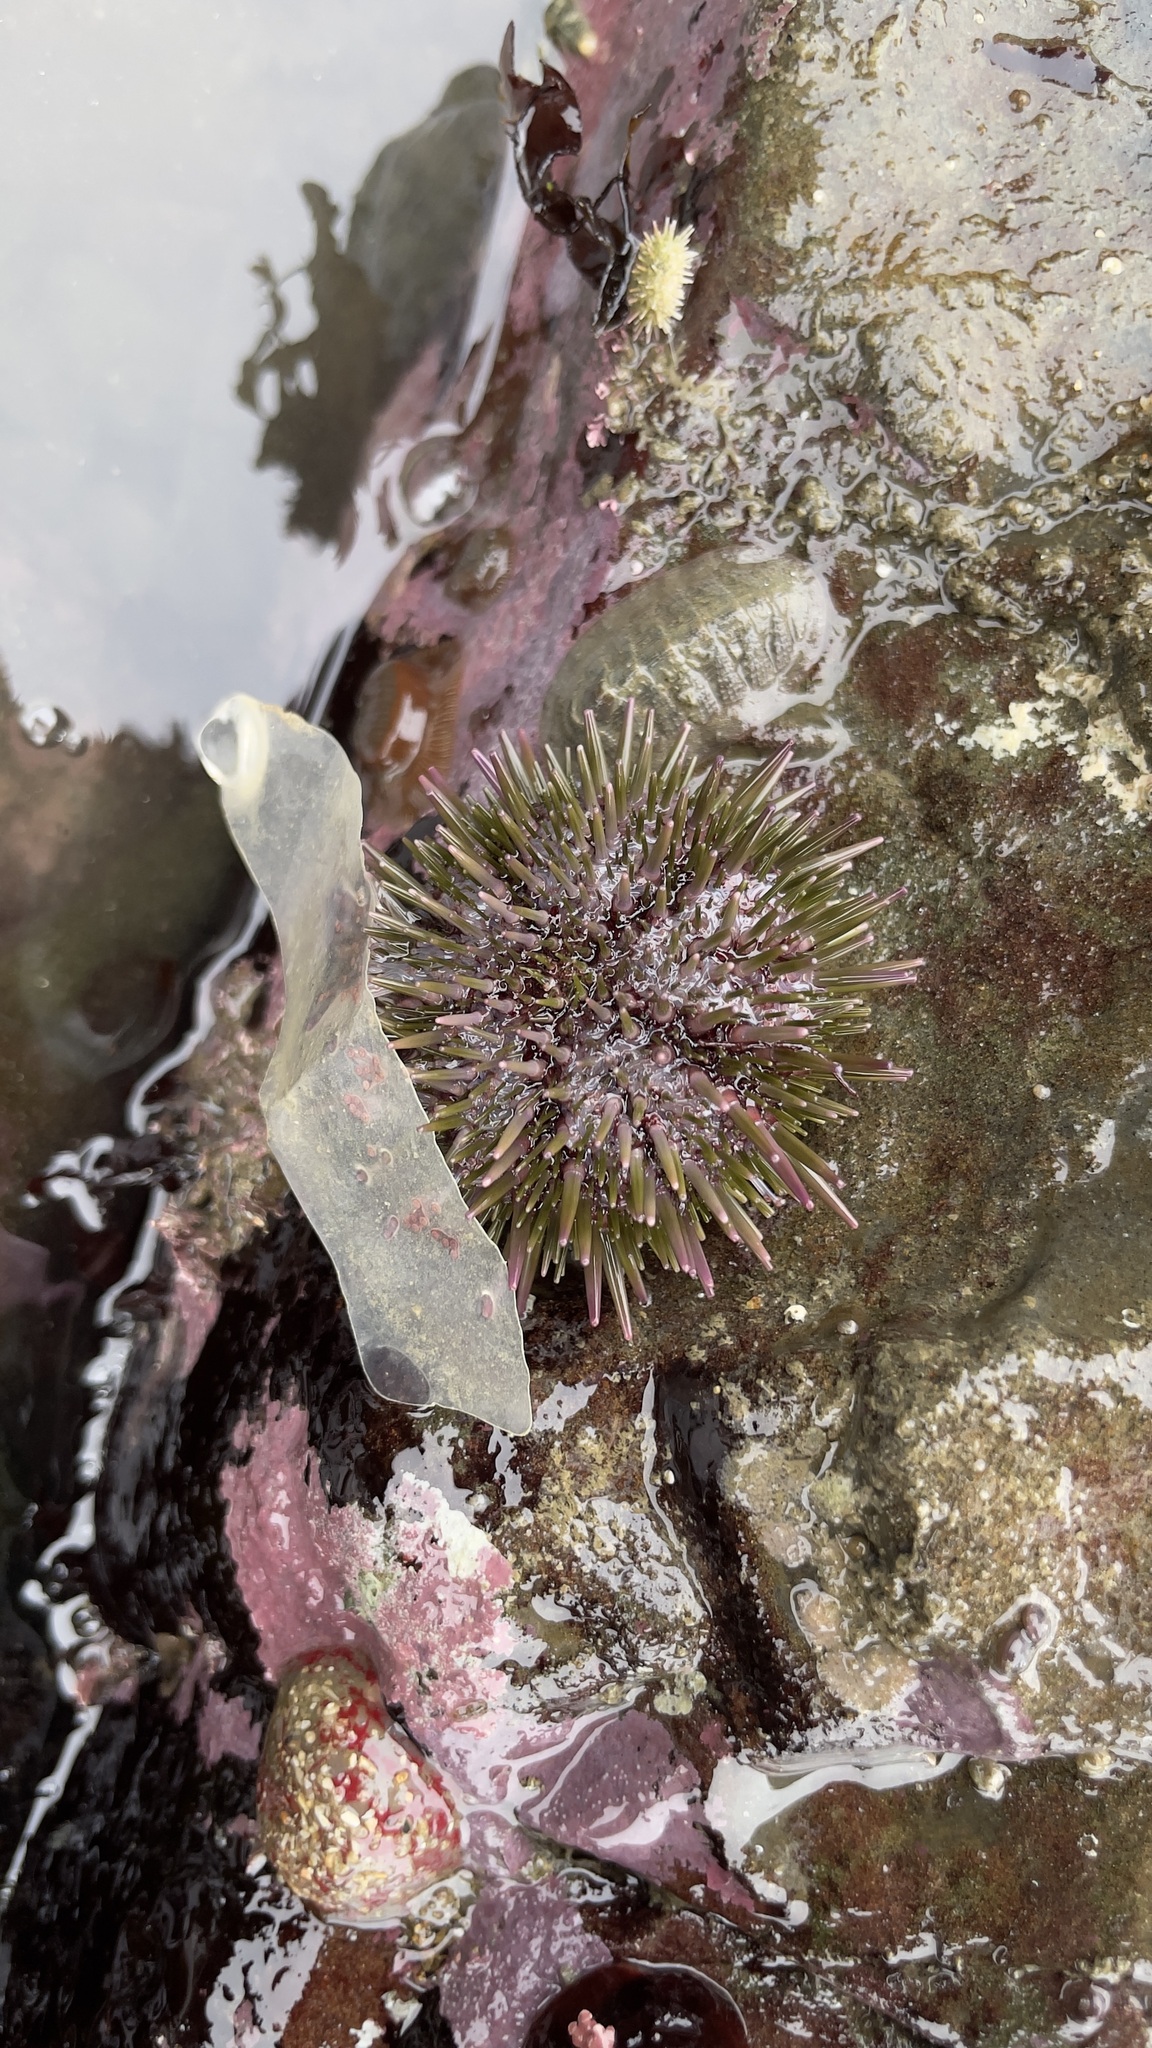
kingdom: Animalia
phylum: Echinodermata
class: Echinoidea
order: Camarodonta
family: Strongylocentrotidae
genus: Strongylocentrotus
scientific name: Strongylocentrotus purpuratus
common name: Purple sea urchin
